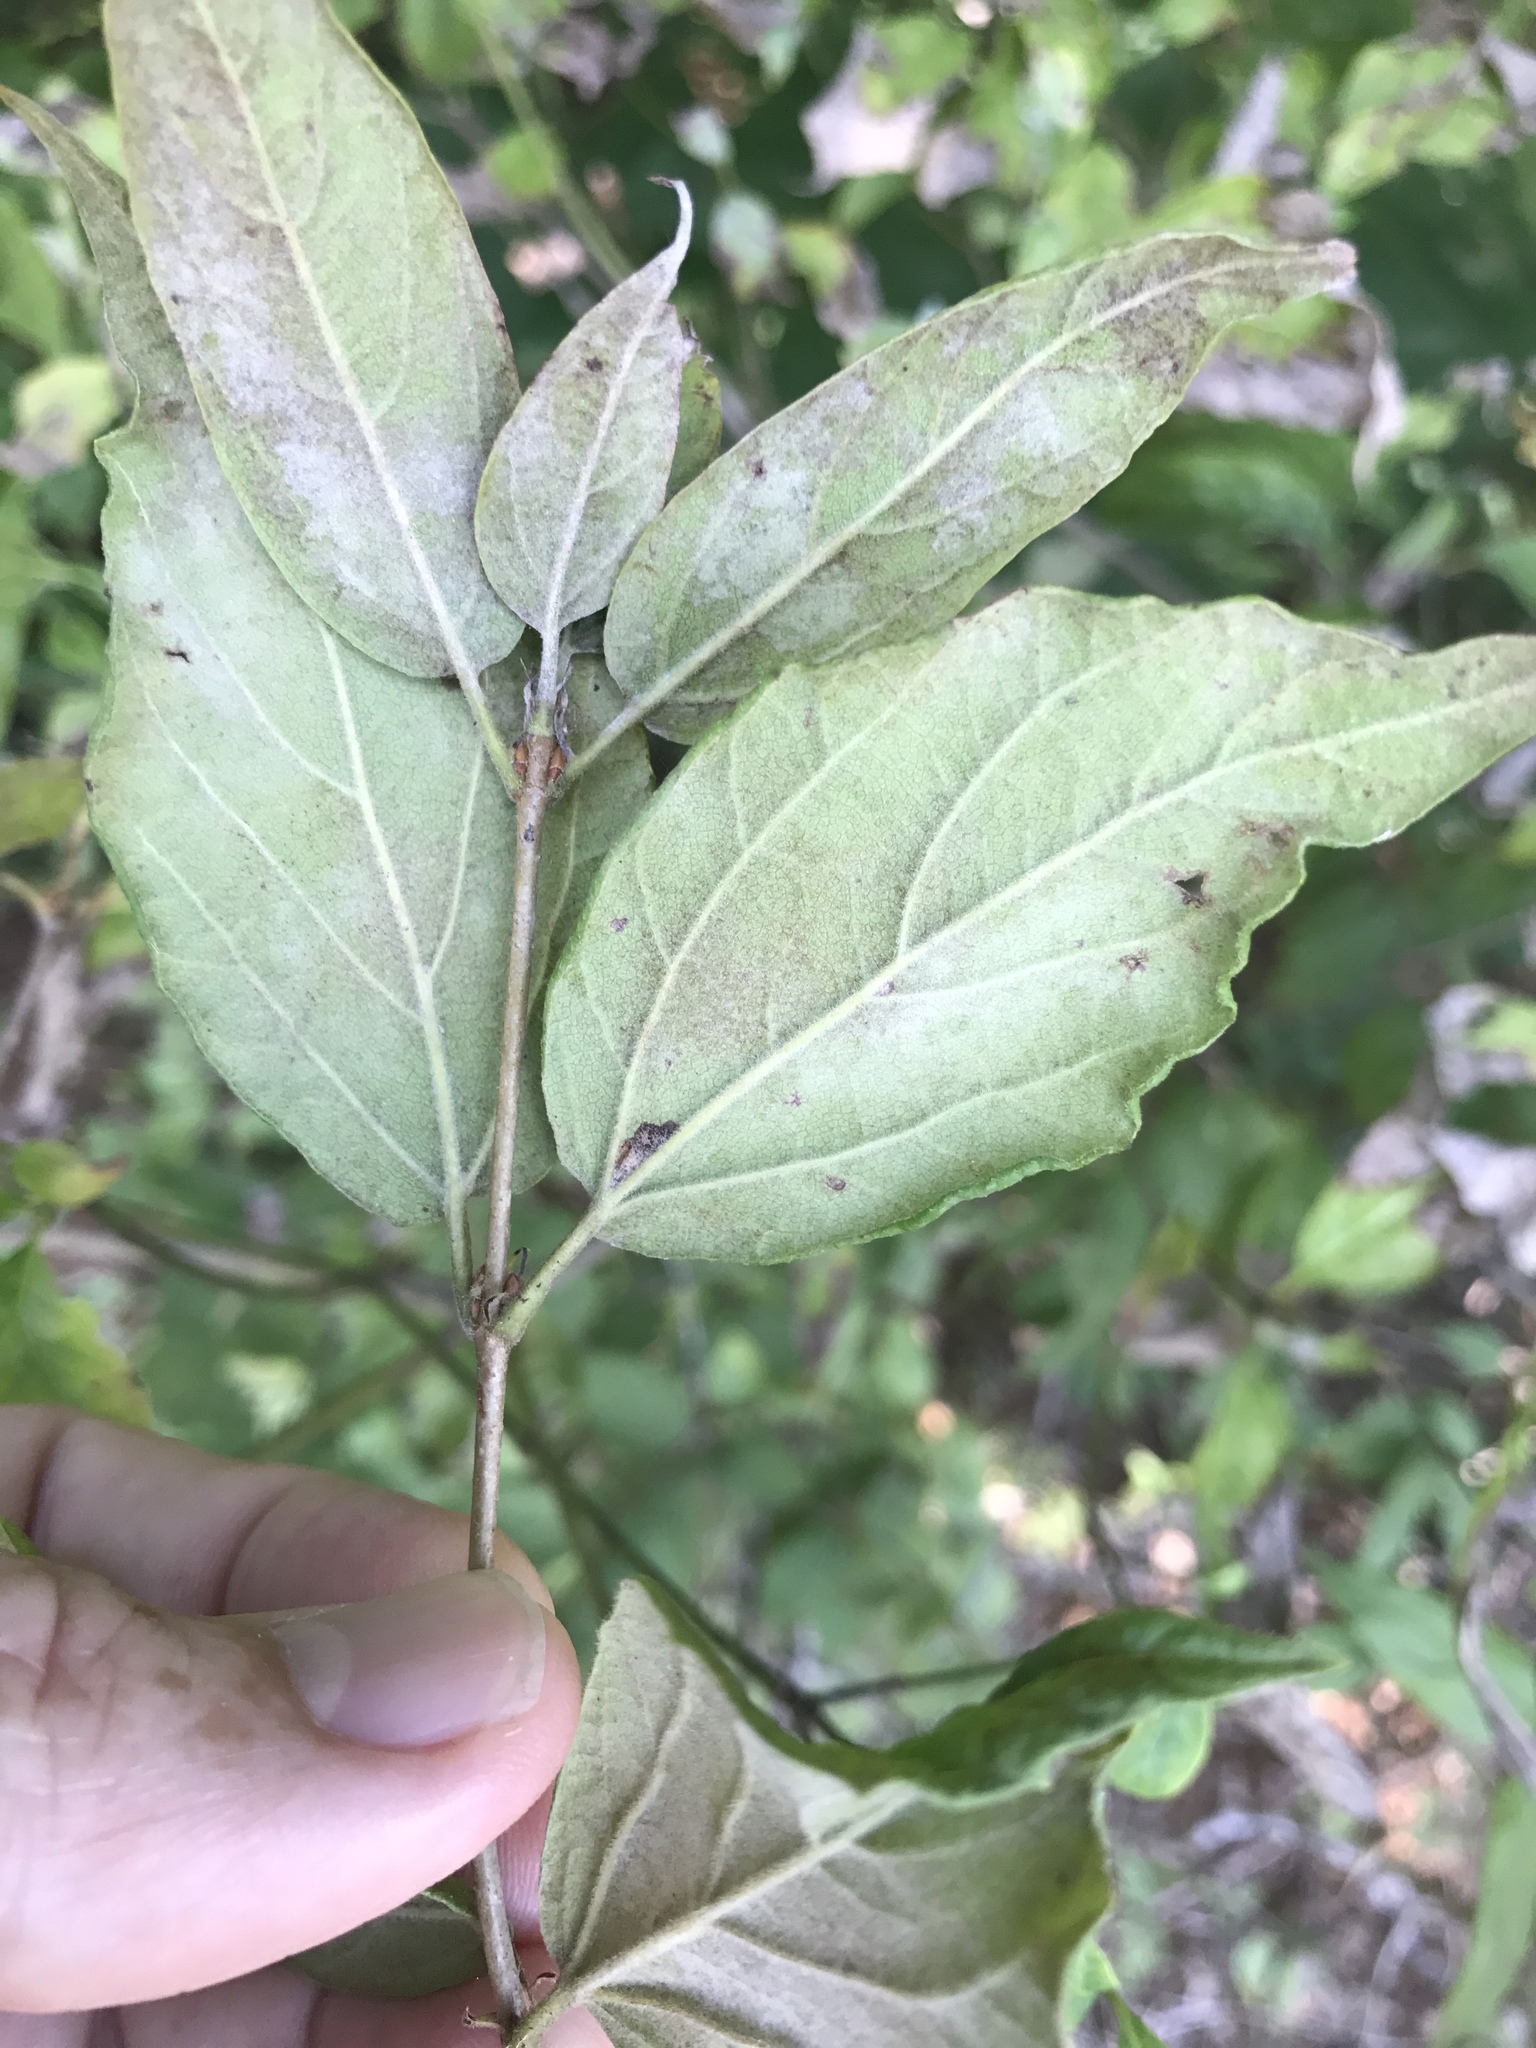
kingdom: Plantae
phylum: Tracheophyta
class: Magnoliopsida
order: Dipsacales
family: Viburnaceae
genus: Viburnum
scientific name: Viburnum rafinesqueanum
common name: Downy arrow-wood
